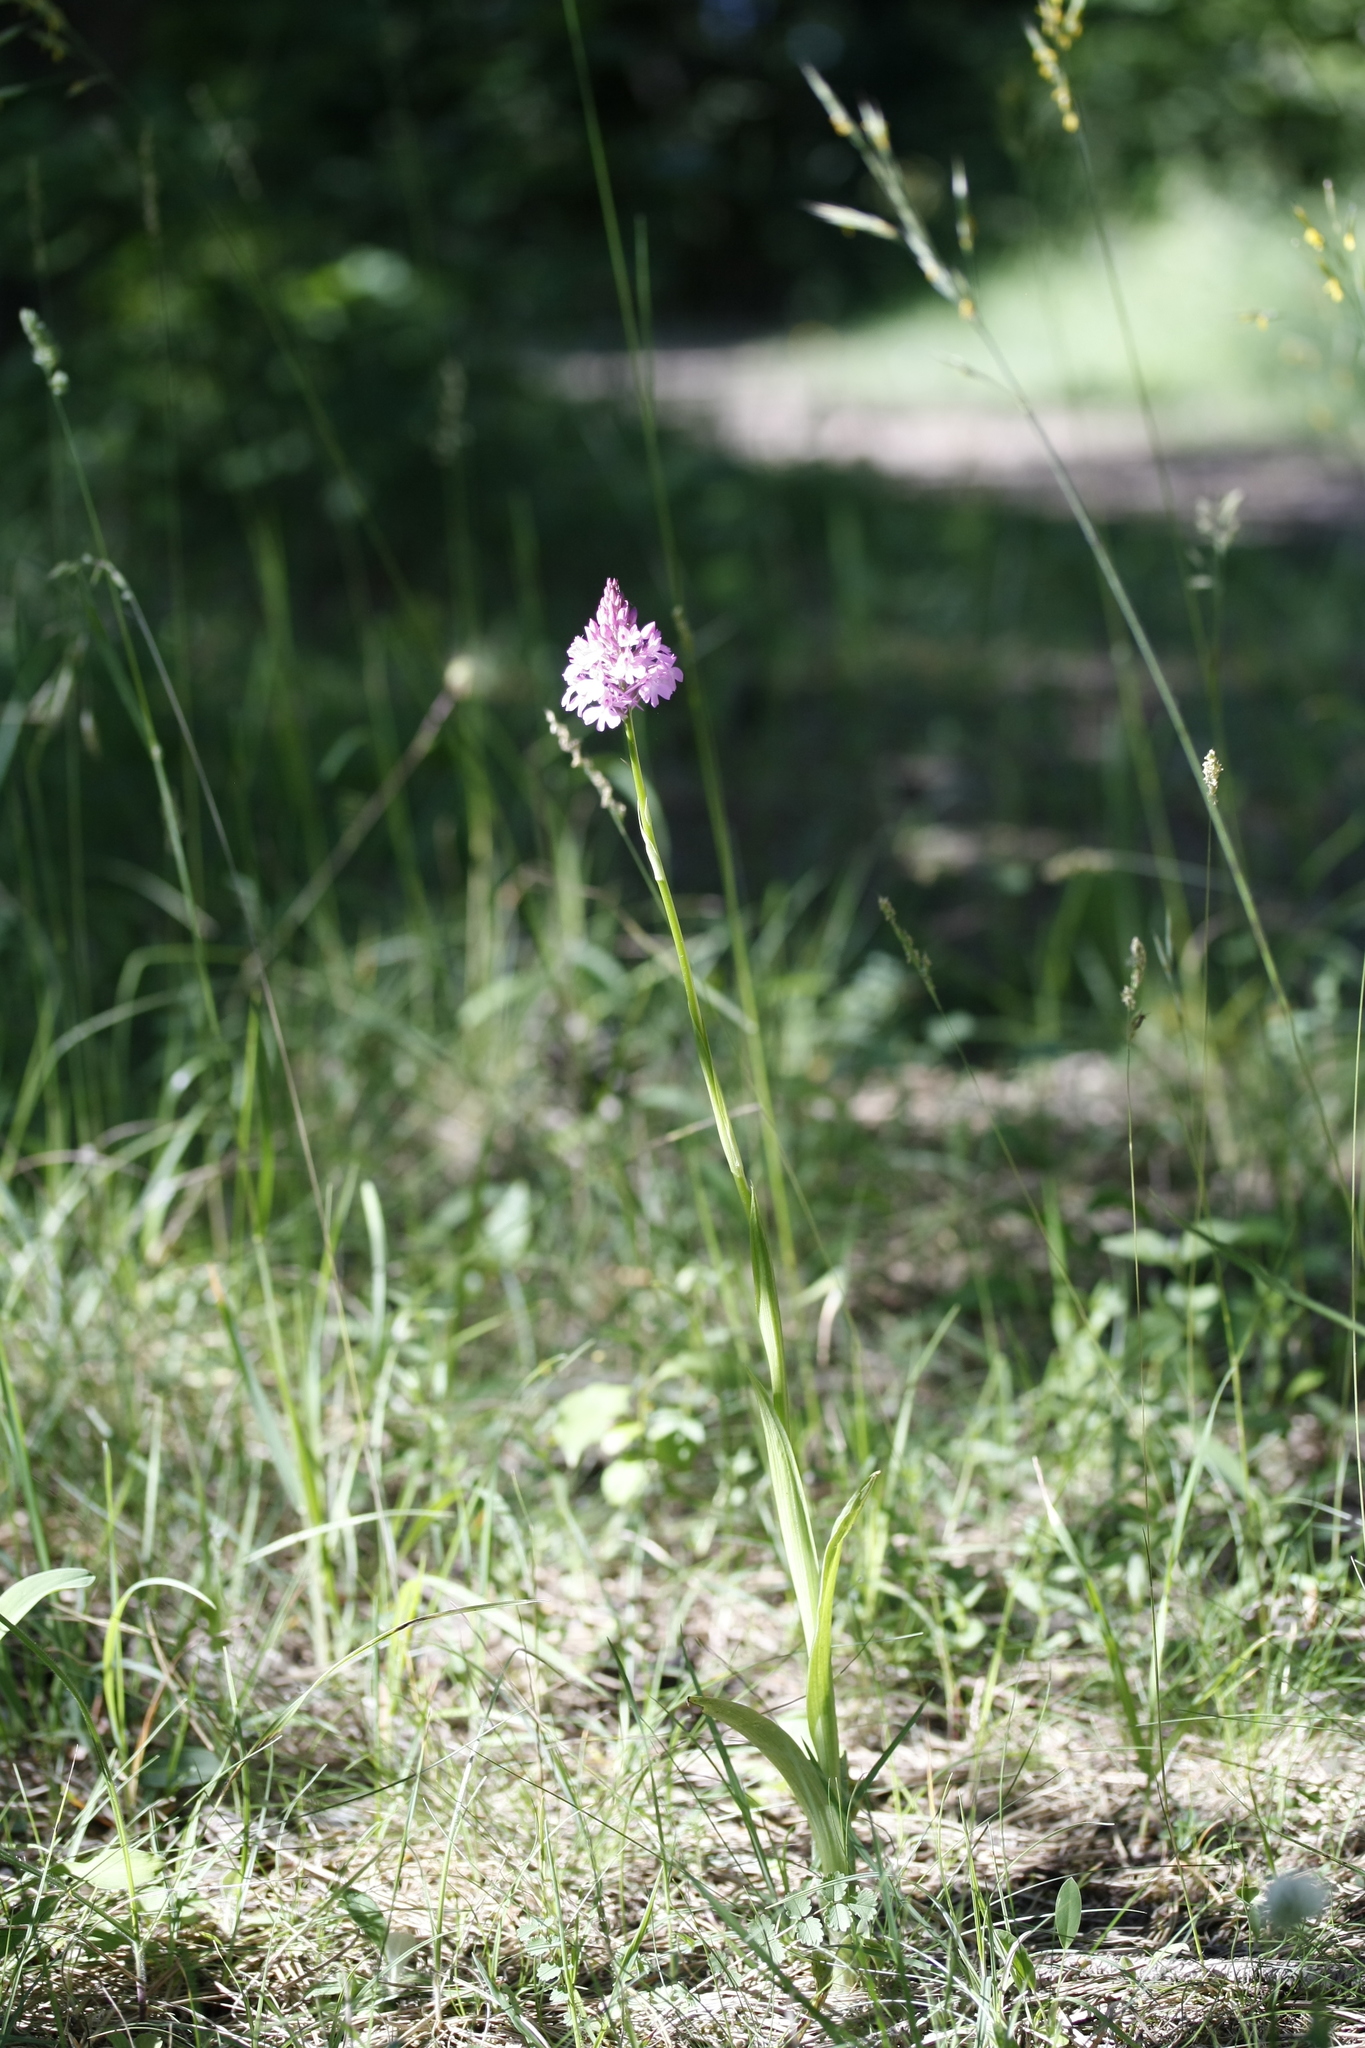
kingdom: Plantae
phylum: Tracheophyta
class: Liliopsida
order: Asparagales
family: Orchidaceae
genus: Anacamptis
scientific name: Anacamptis pyramidalis
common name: Pyramidal orchid
